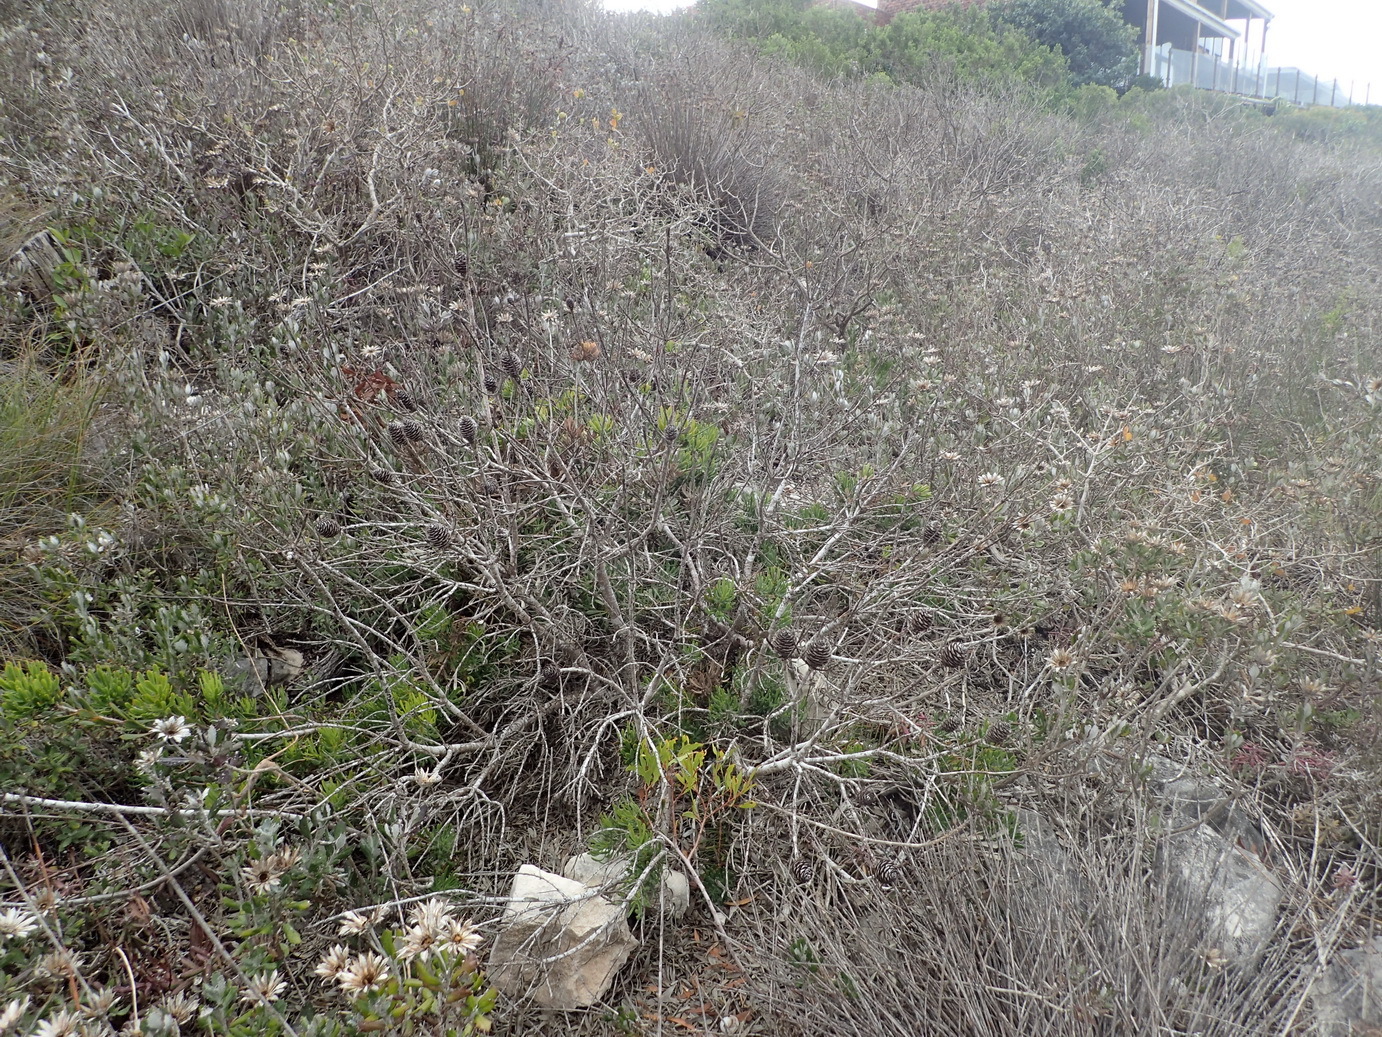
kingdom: Plantae
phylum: Tracheophyta
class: Magnoliopsida
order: Proteales
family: Proteaceae
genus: Leucadendron
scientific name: Leucadendron muirii
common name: Silver-ball conebush
